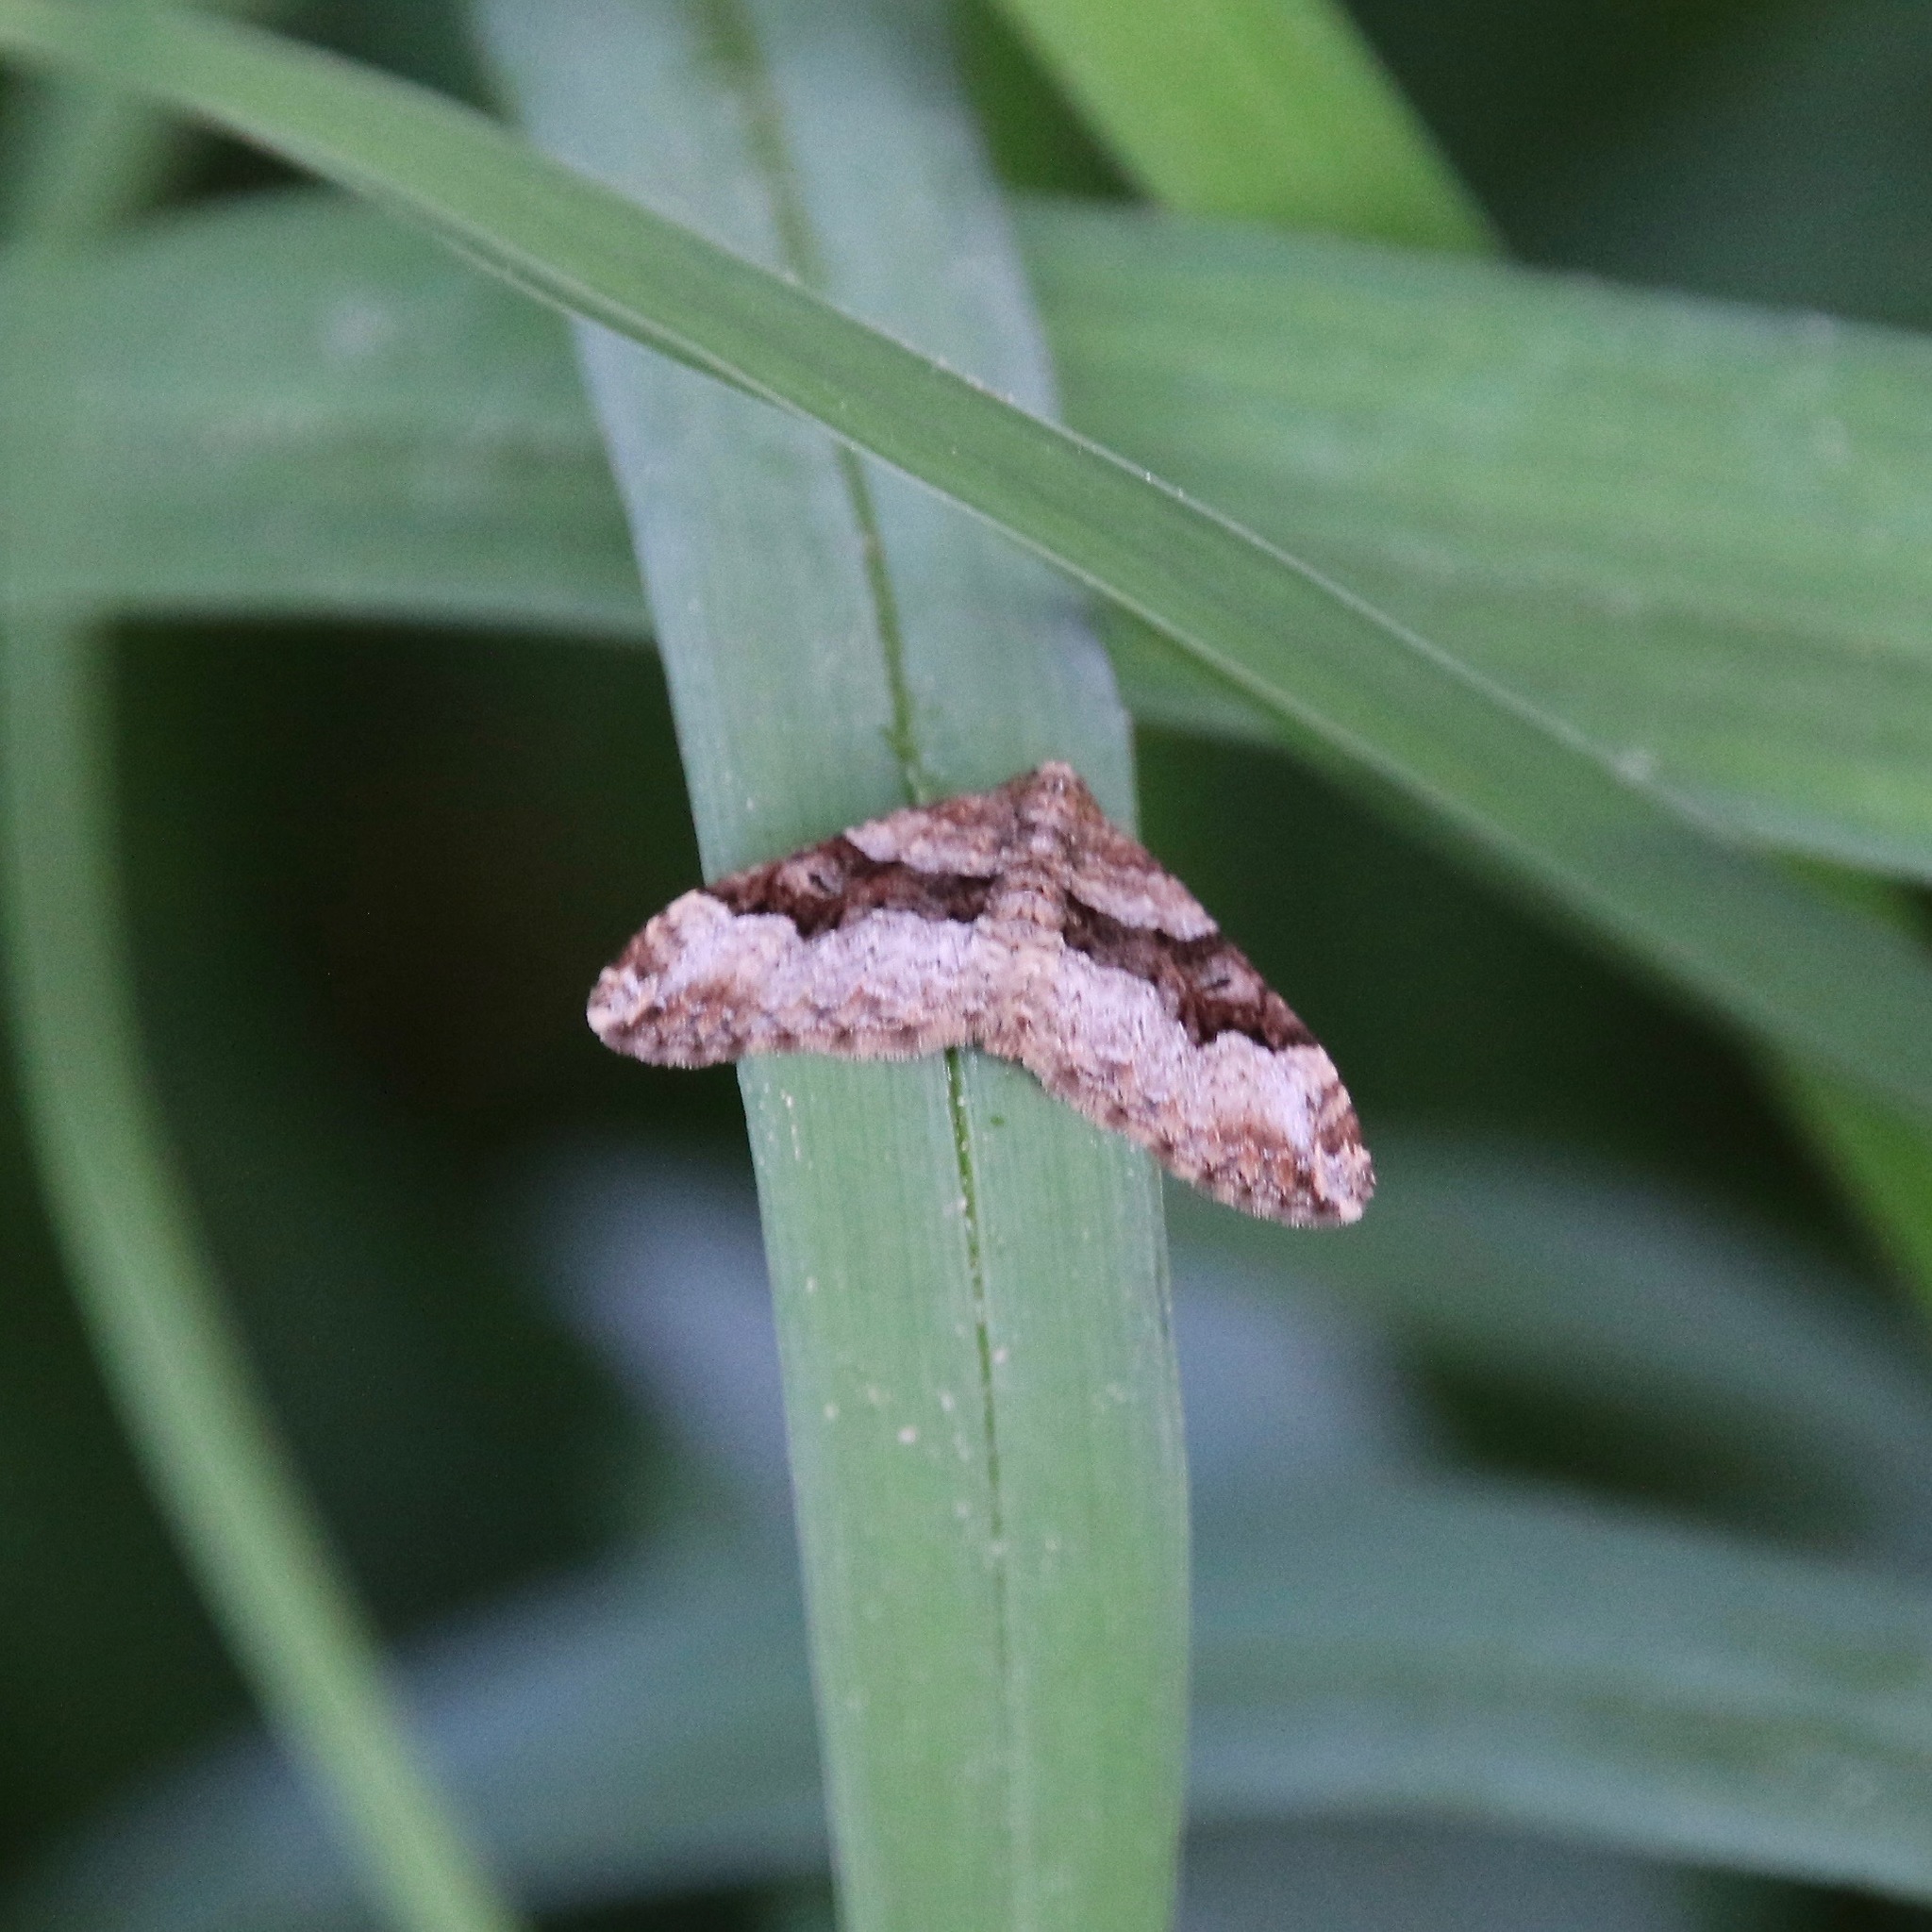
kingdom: Animalia
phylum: Arthropoda
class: Insecta
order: Lepidoptera
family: Geometridae
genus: Xanthorhoe
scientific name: Xanthorhoe lacustrata
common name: Toothed brown carpet
